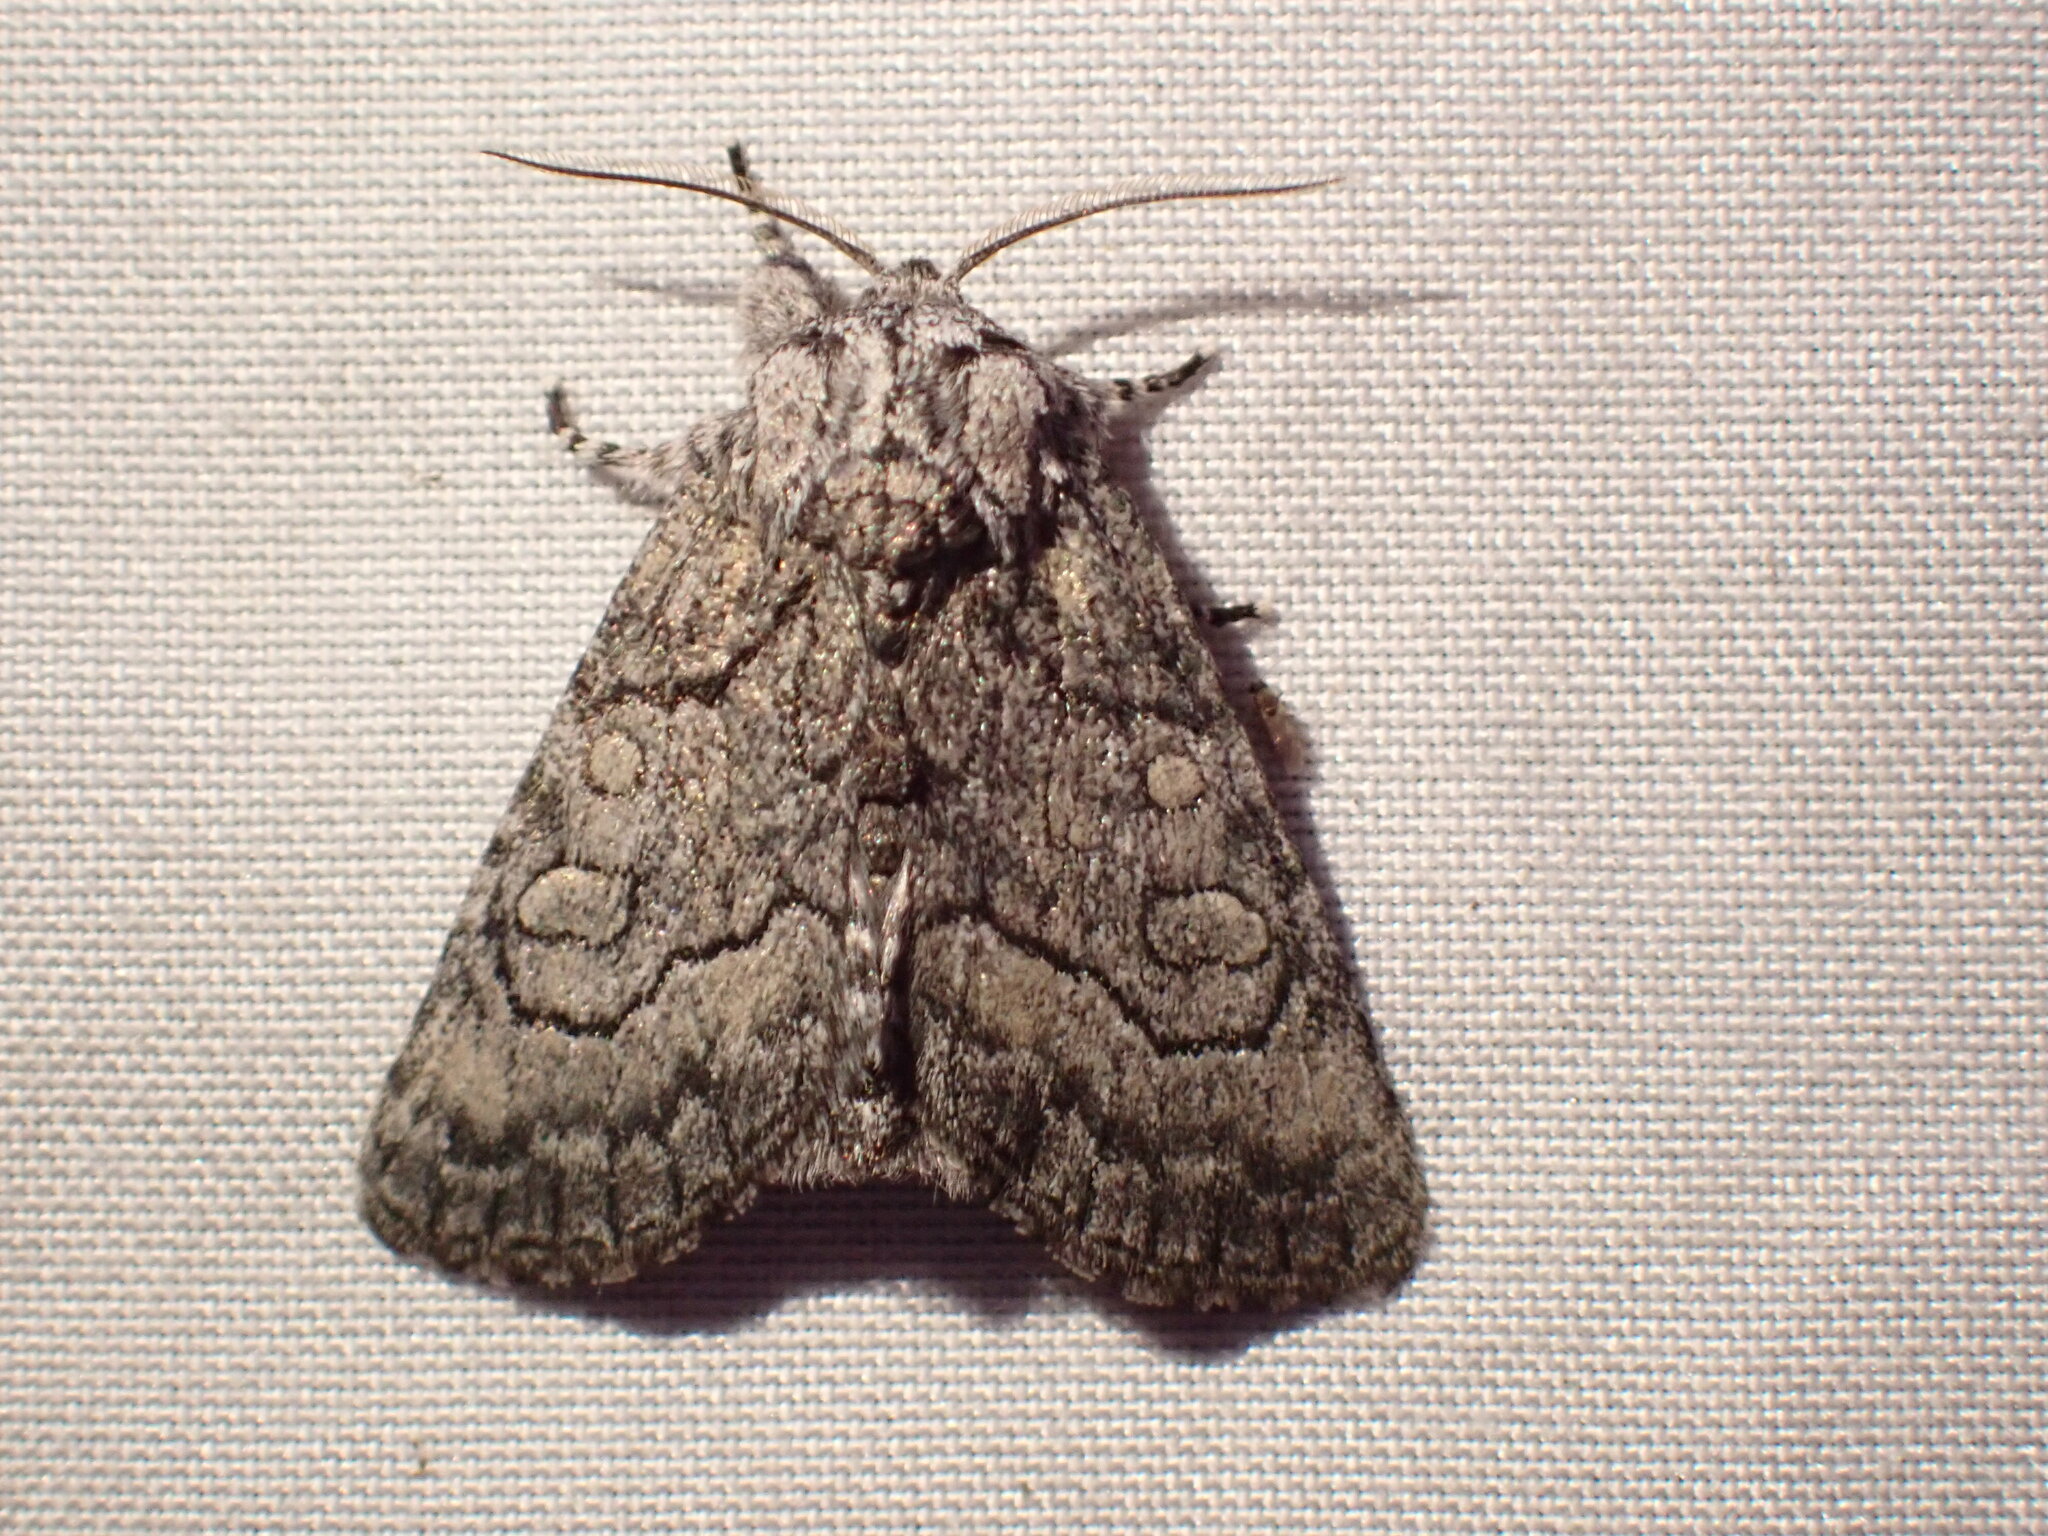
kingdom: Animalia
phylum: Arthropoda
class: Insecta
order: Lepidoptera
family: Noctuidae
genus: Raphia
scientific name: Raphia frater
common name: Brother
